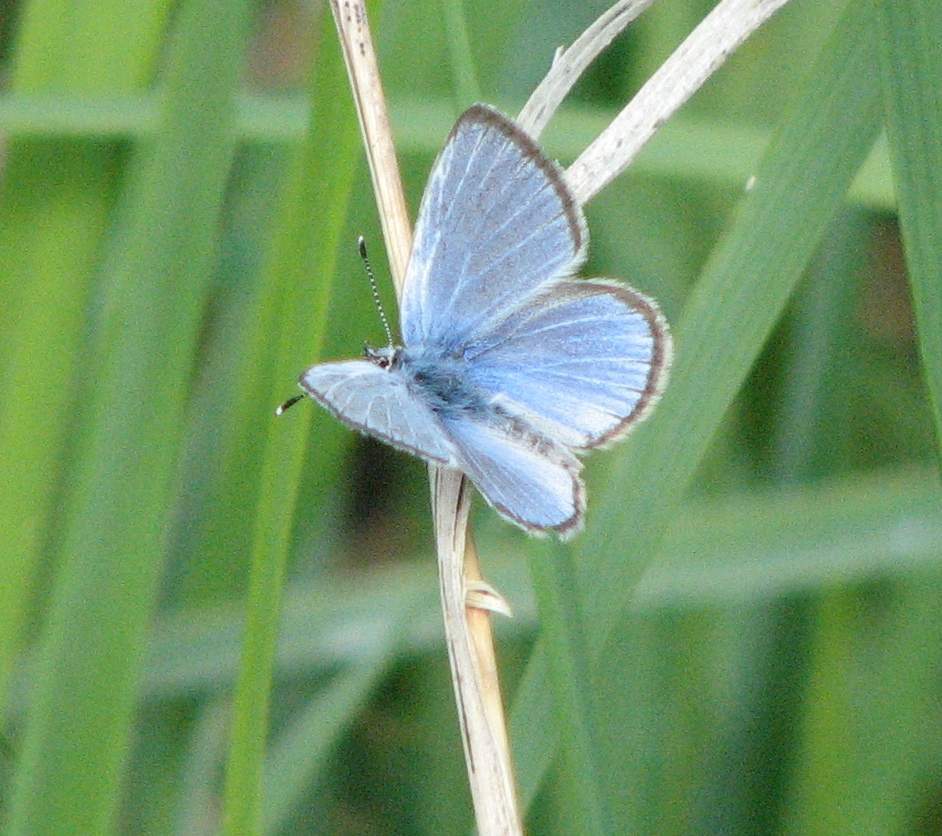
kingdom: Animalia
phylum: Arthropoda
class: Insecta
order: Lepidoptera
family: Lycaenidae
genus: Glaucopsyche
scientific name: Glaucopsyche lygdamus
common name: Silvery blue
